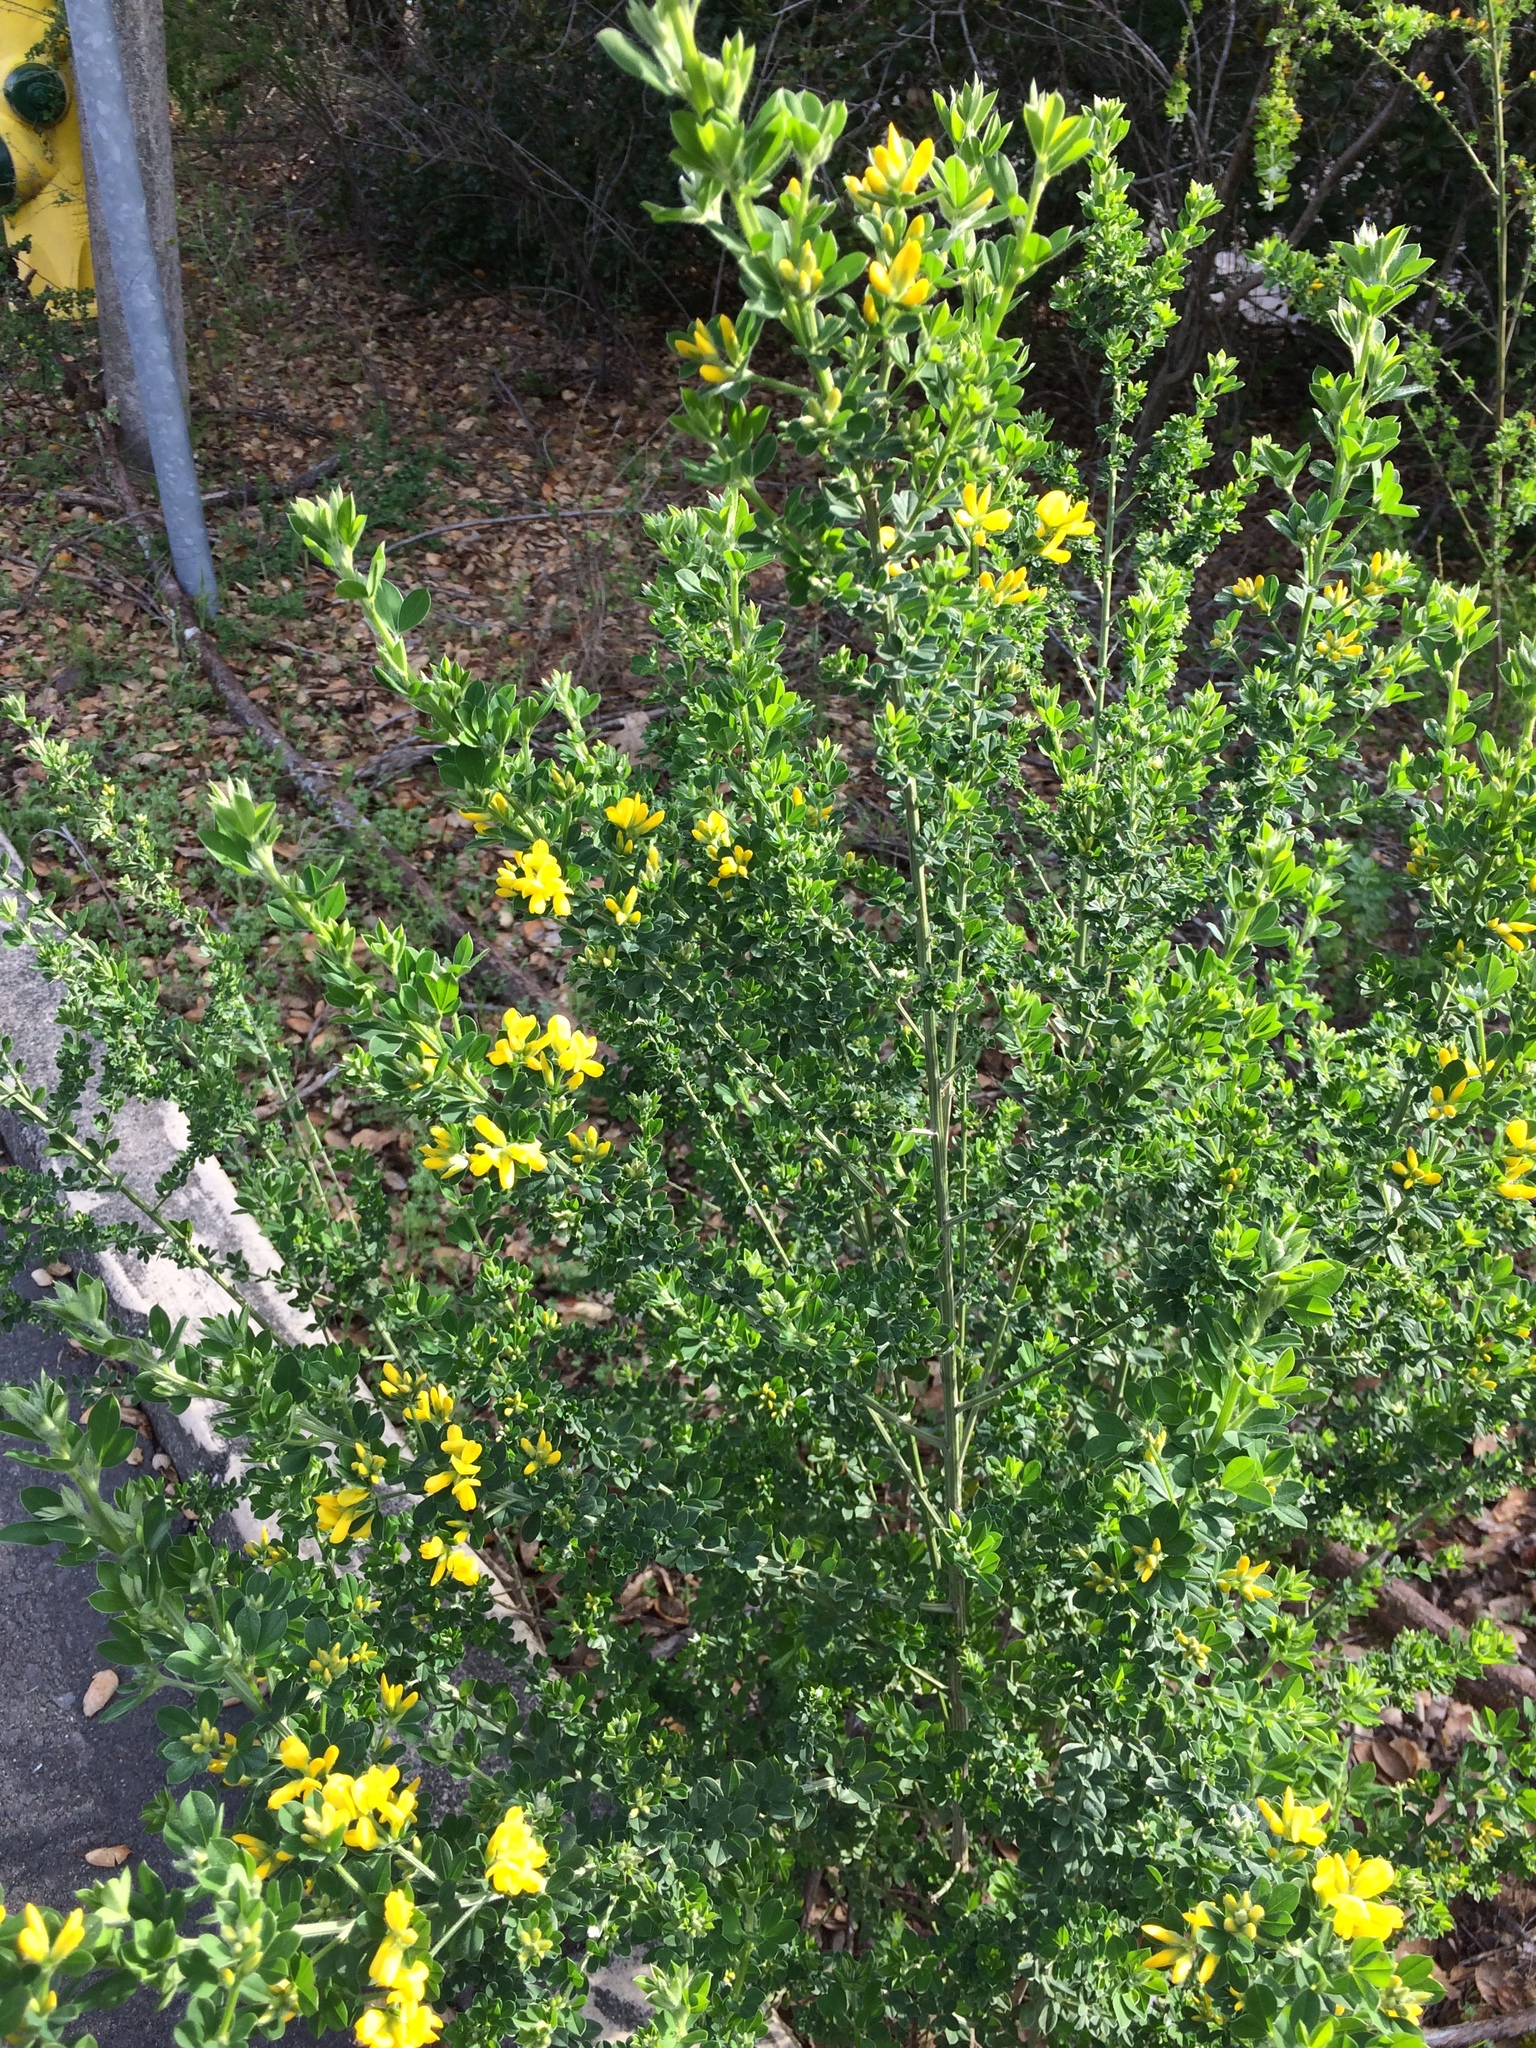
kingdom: Plantae
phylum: Tracheophyta
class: Magnoliopsida
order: Fabales
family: Fabaceae
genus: Genista
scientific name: Genista monspessulana
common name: Montpellier broom
